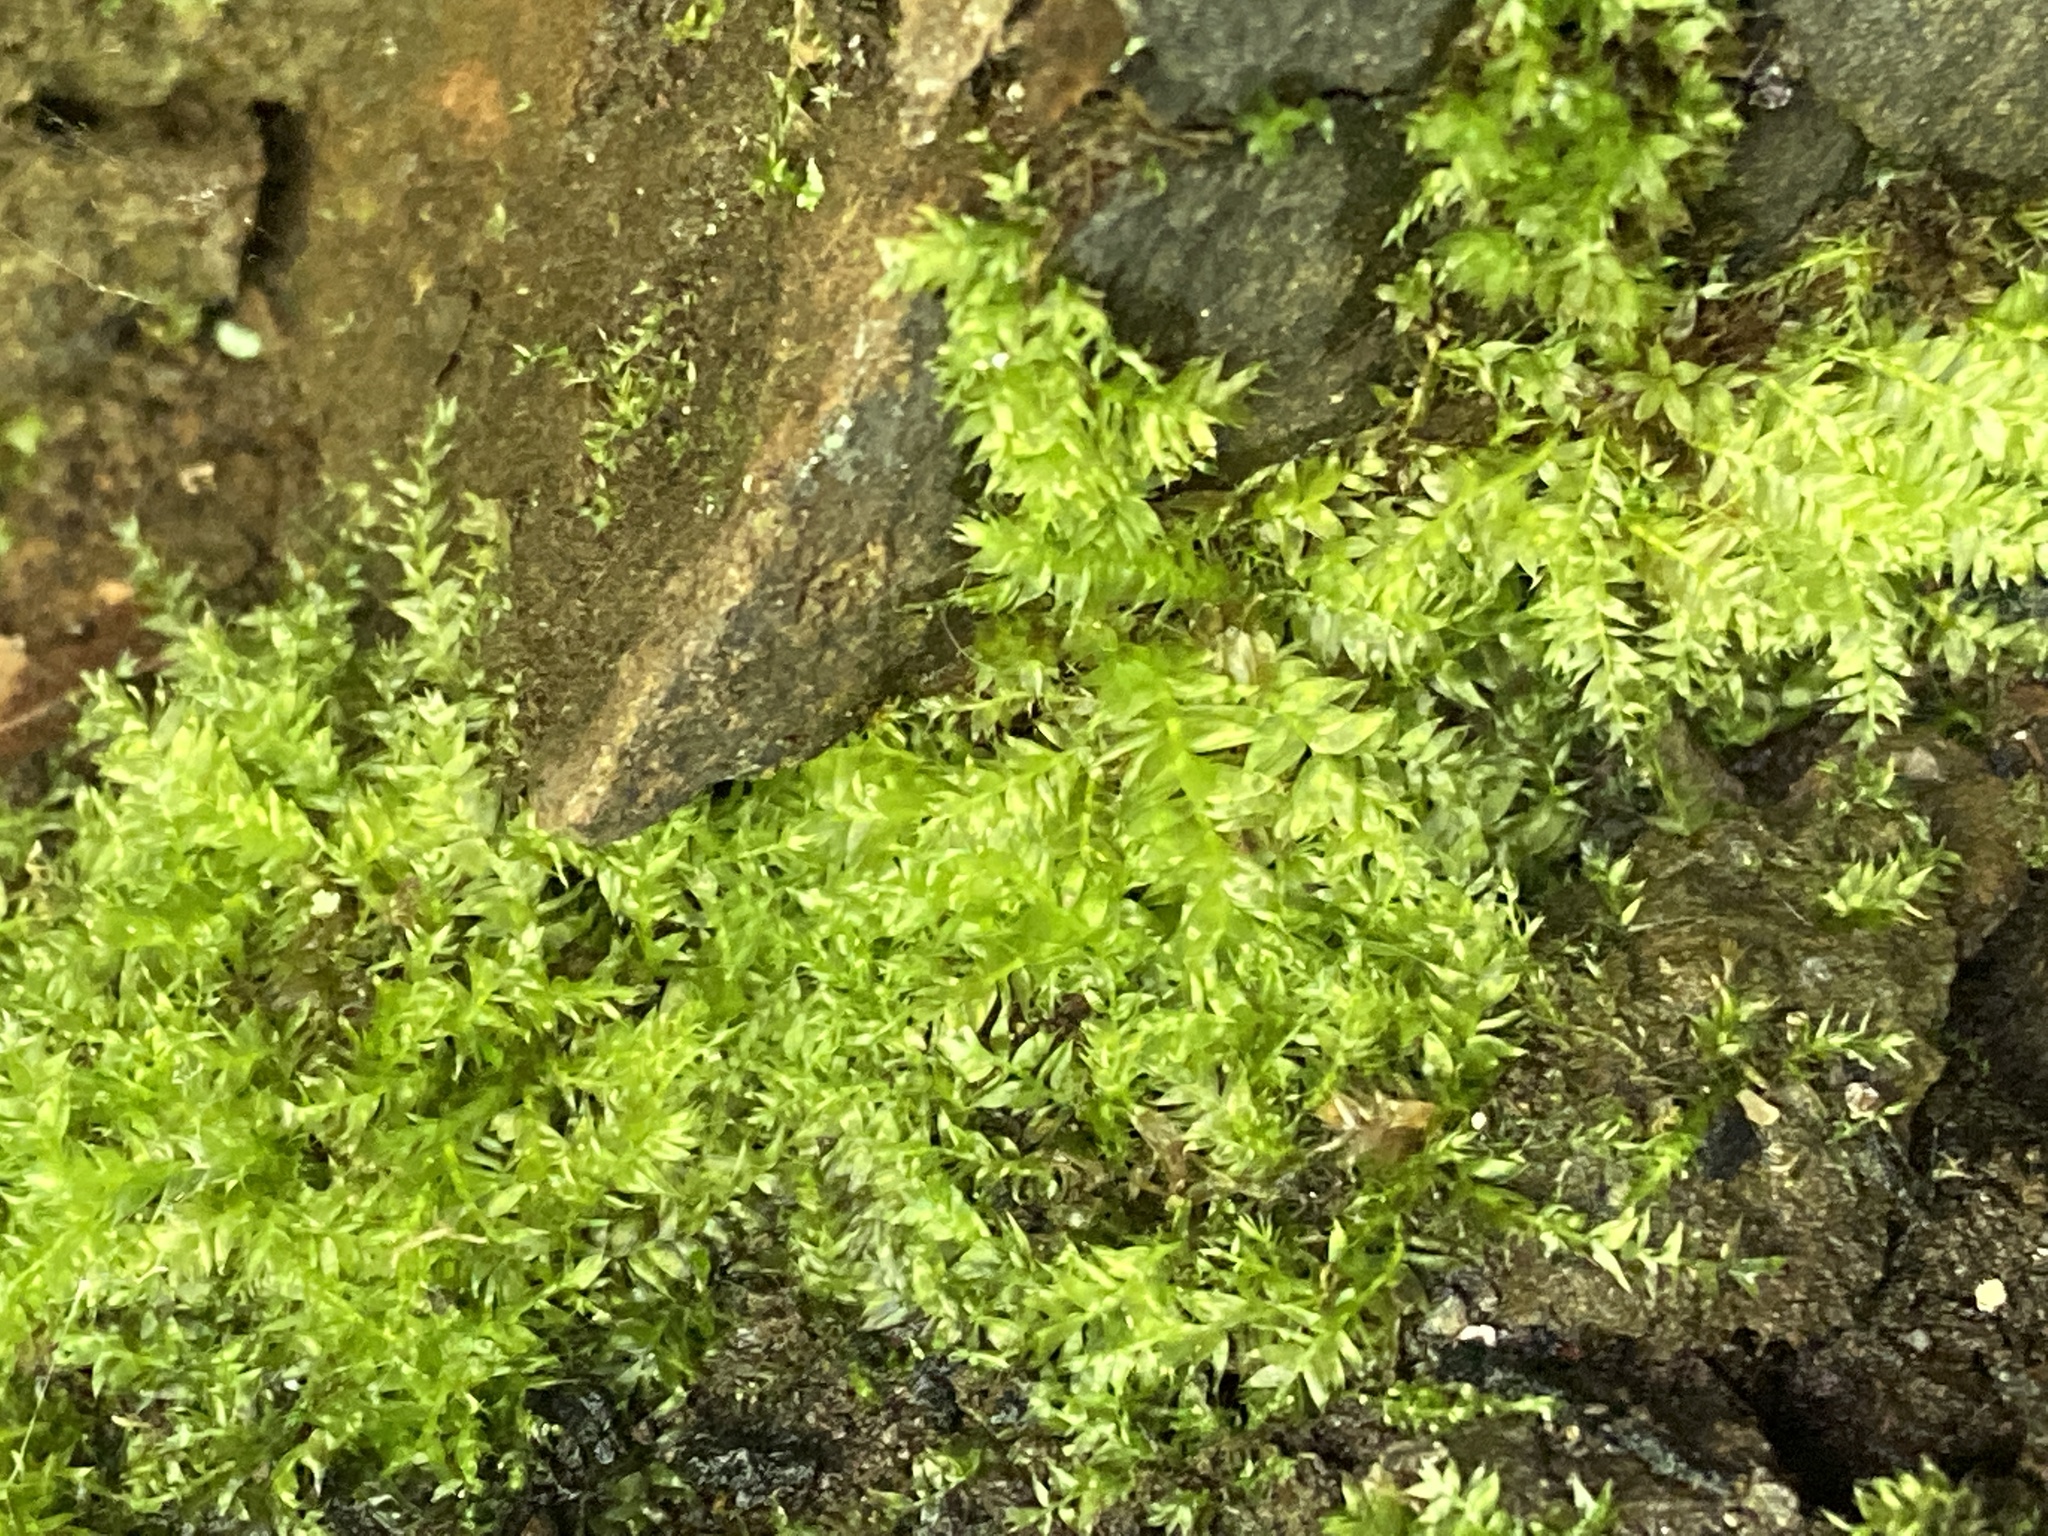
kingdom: Plantae
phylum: Bryophyta
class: Bryopsida
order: Hypnales
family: Plagiotheciaceae
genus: Pseudotaxiphyllum
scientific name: Pseudotaxiphyllum elegans
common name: Elegant silk moss
